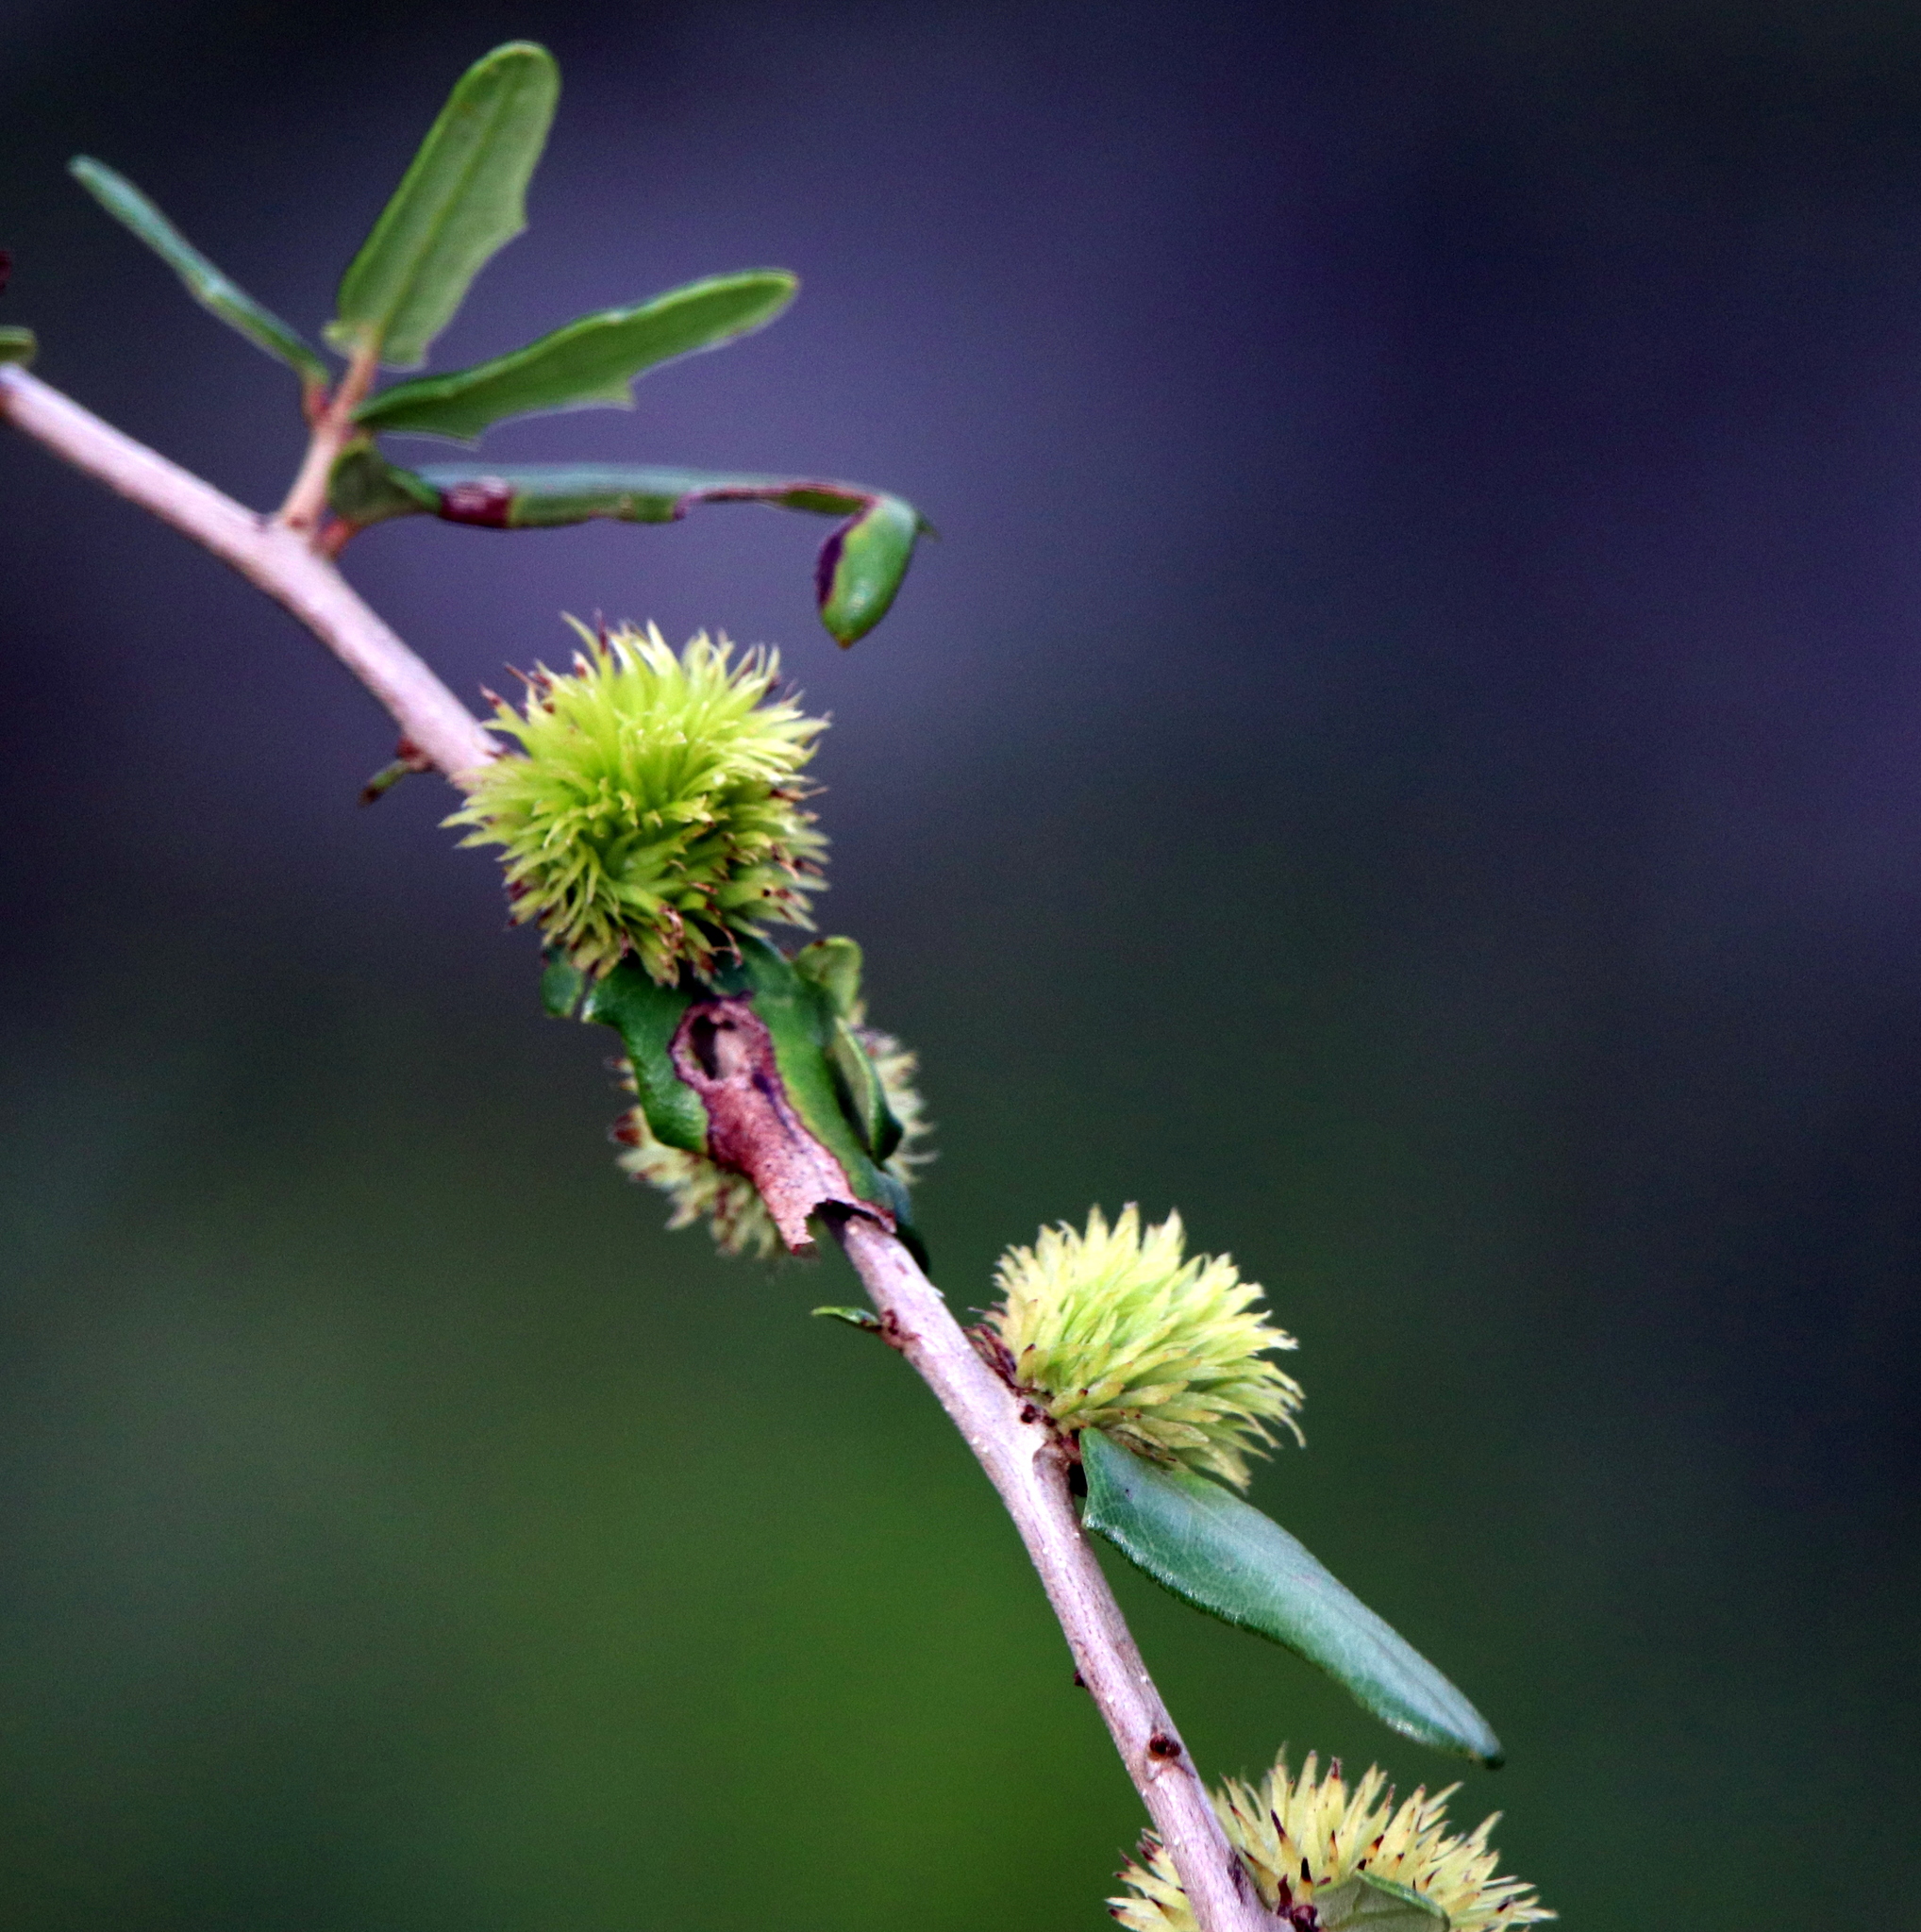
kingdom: Animalia
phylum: Arthropoda
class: Insecta
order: Hymenoptera
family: Cynipidae
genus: Andricus
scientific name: Andricus quercusfoliatus
